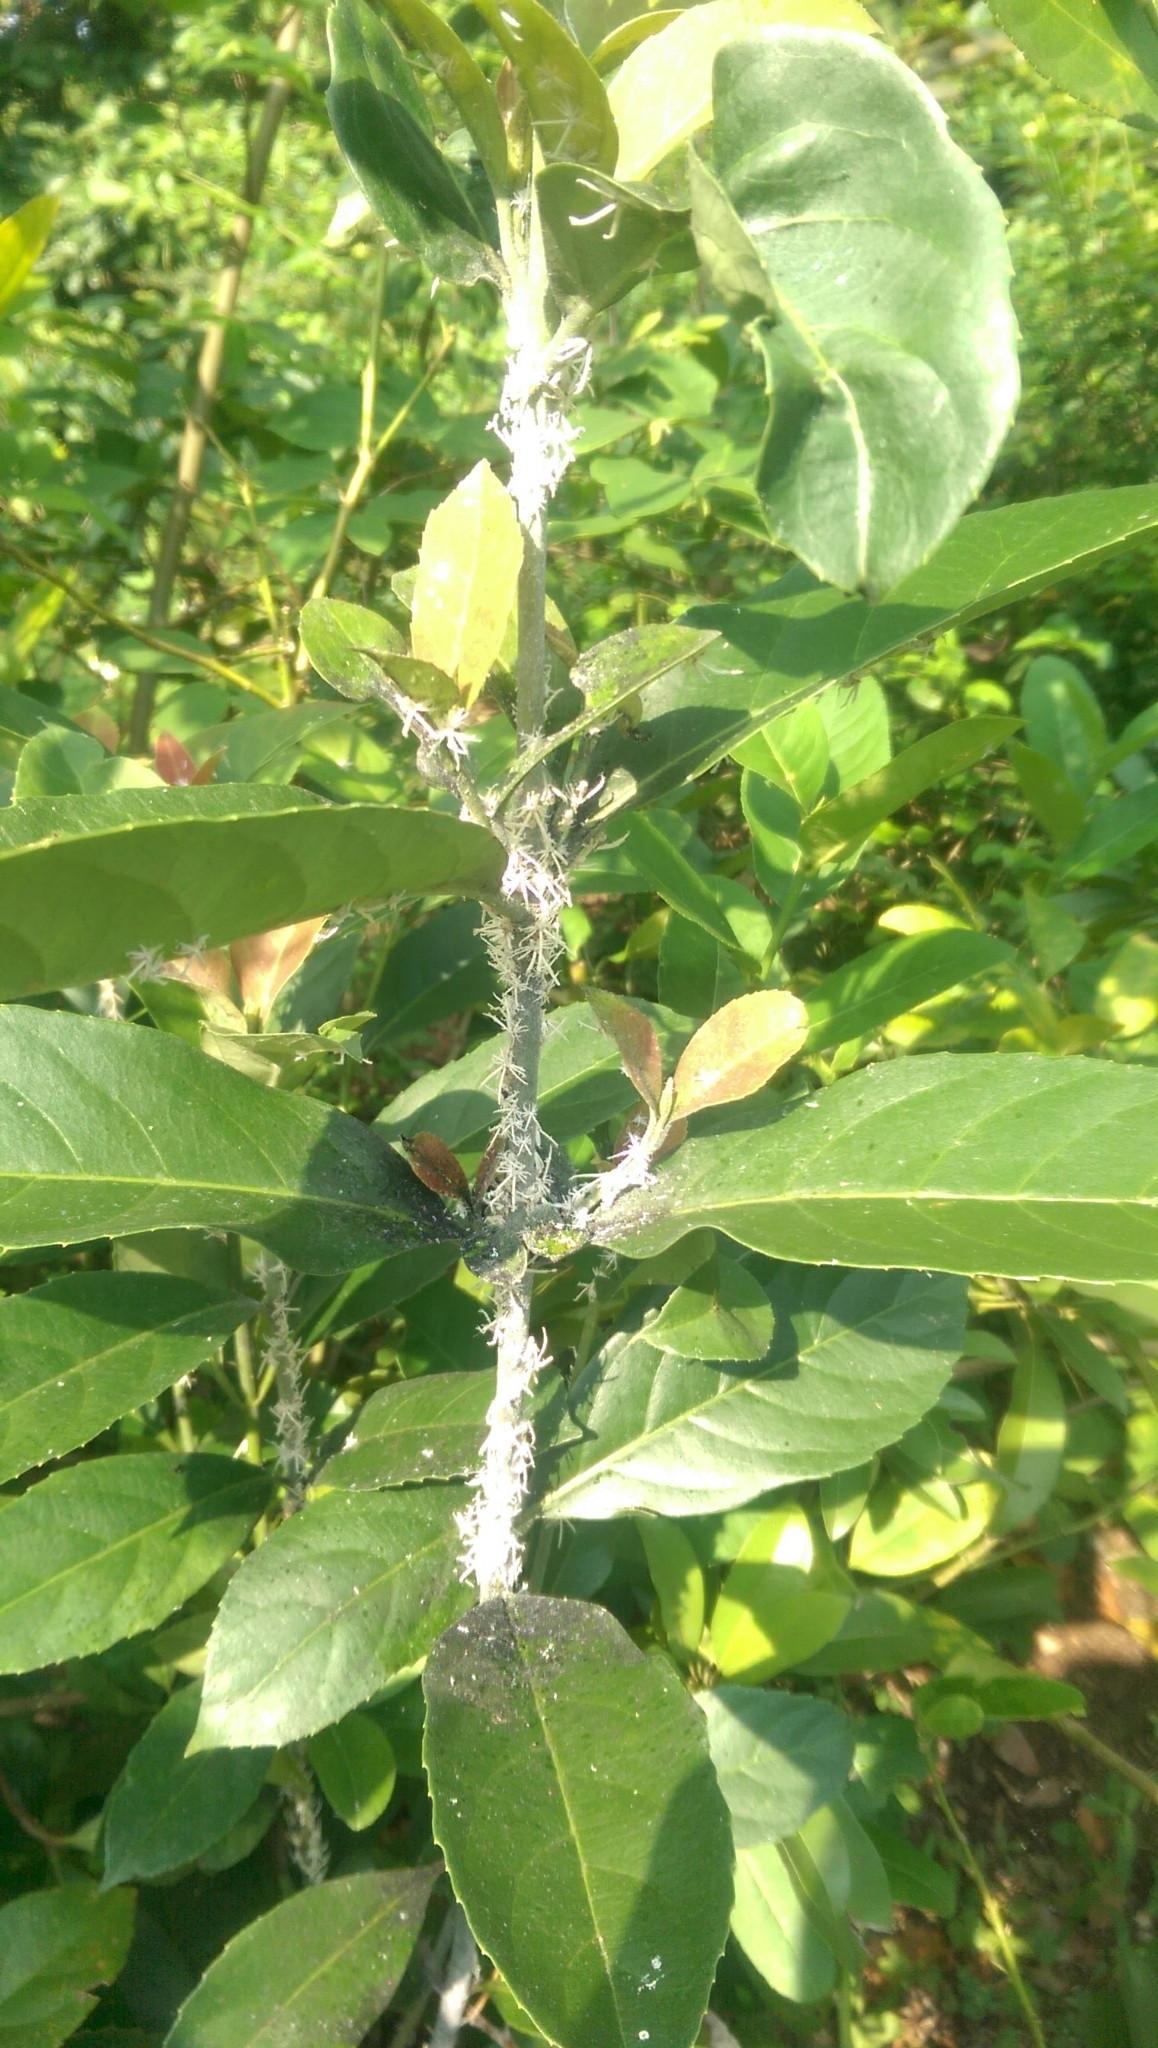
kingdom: Animalia
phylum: Arthropoda
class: Insecta
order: Hemiptera
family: Ricaniidae
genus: Ricania
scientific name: Ricania guttata
